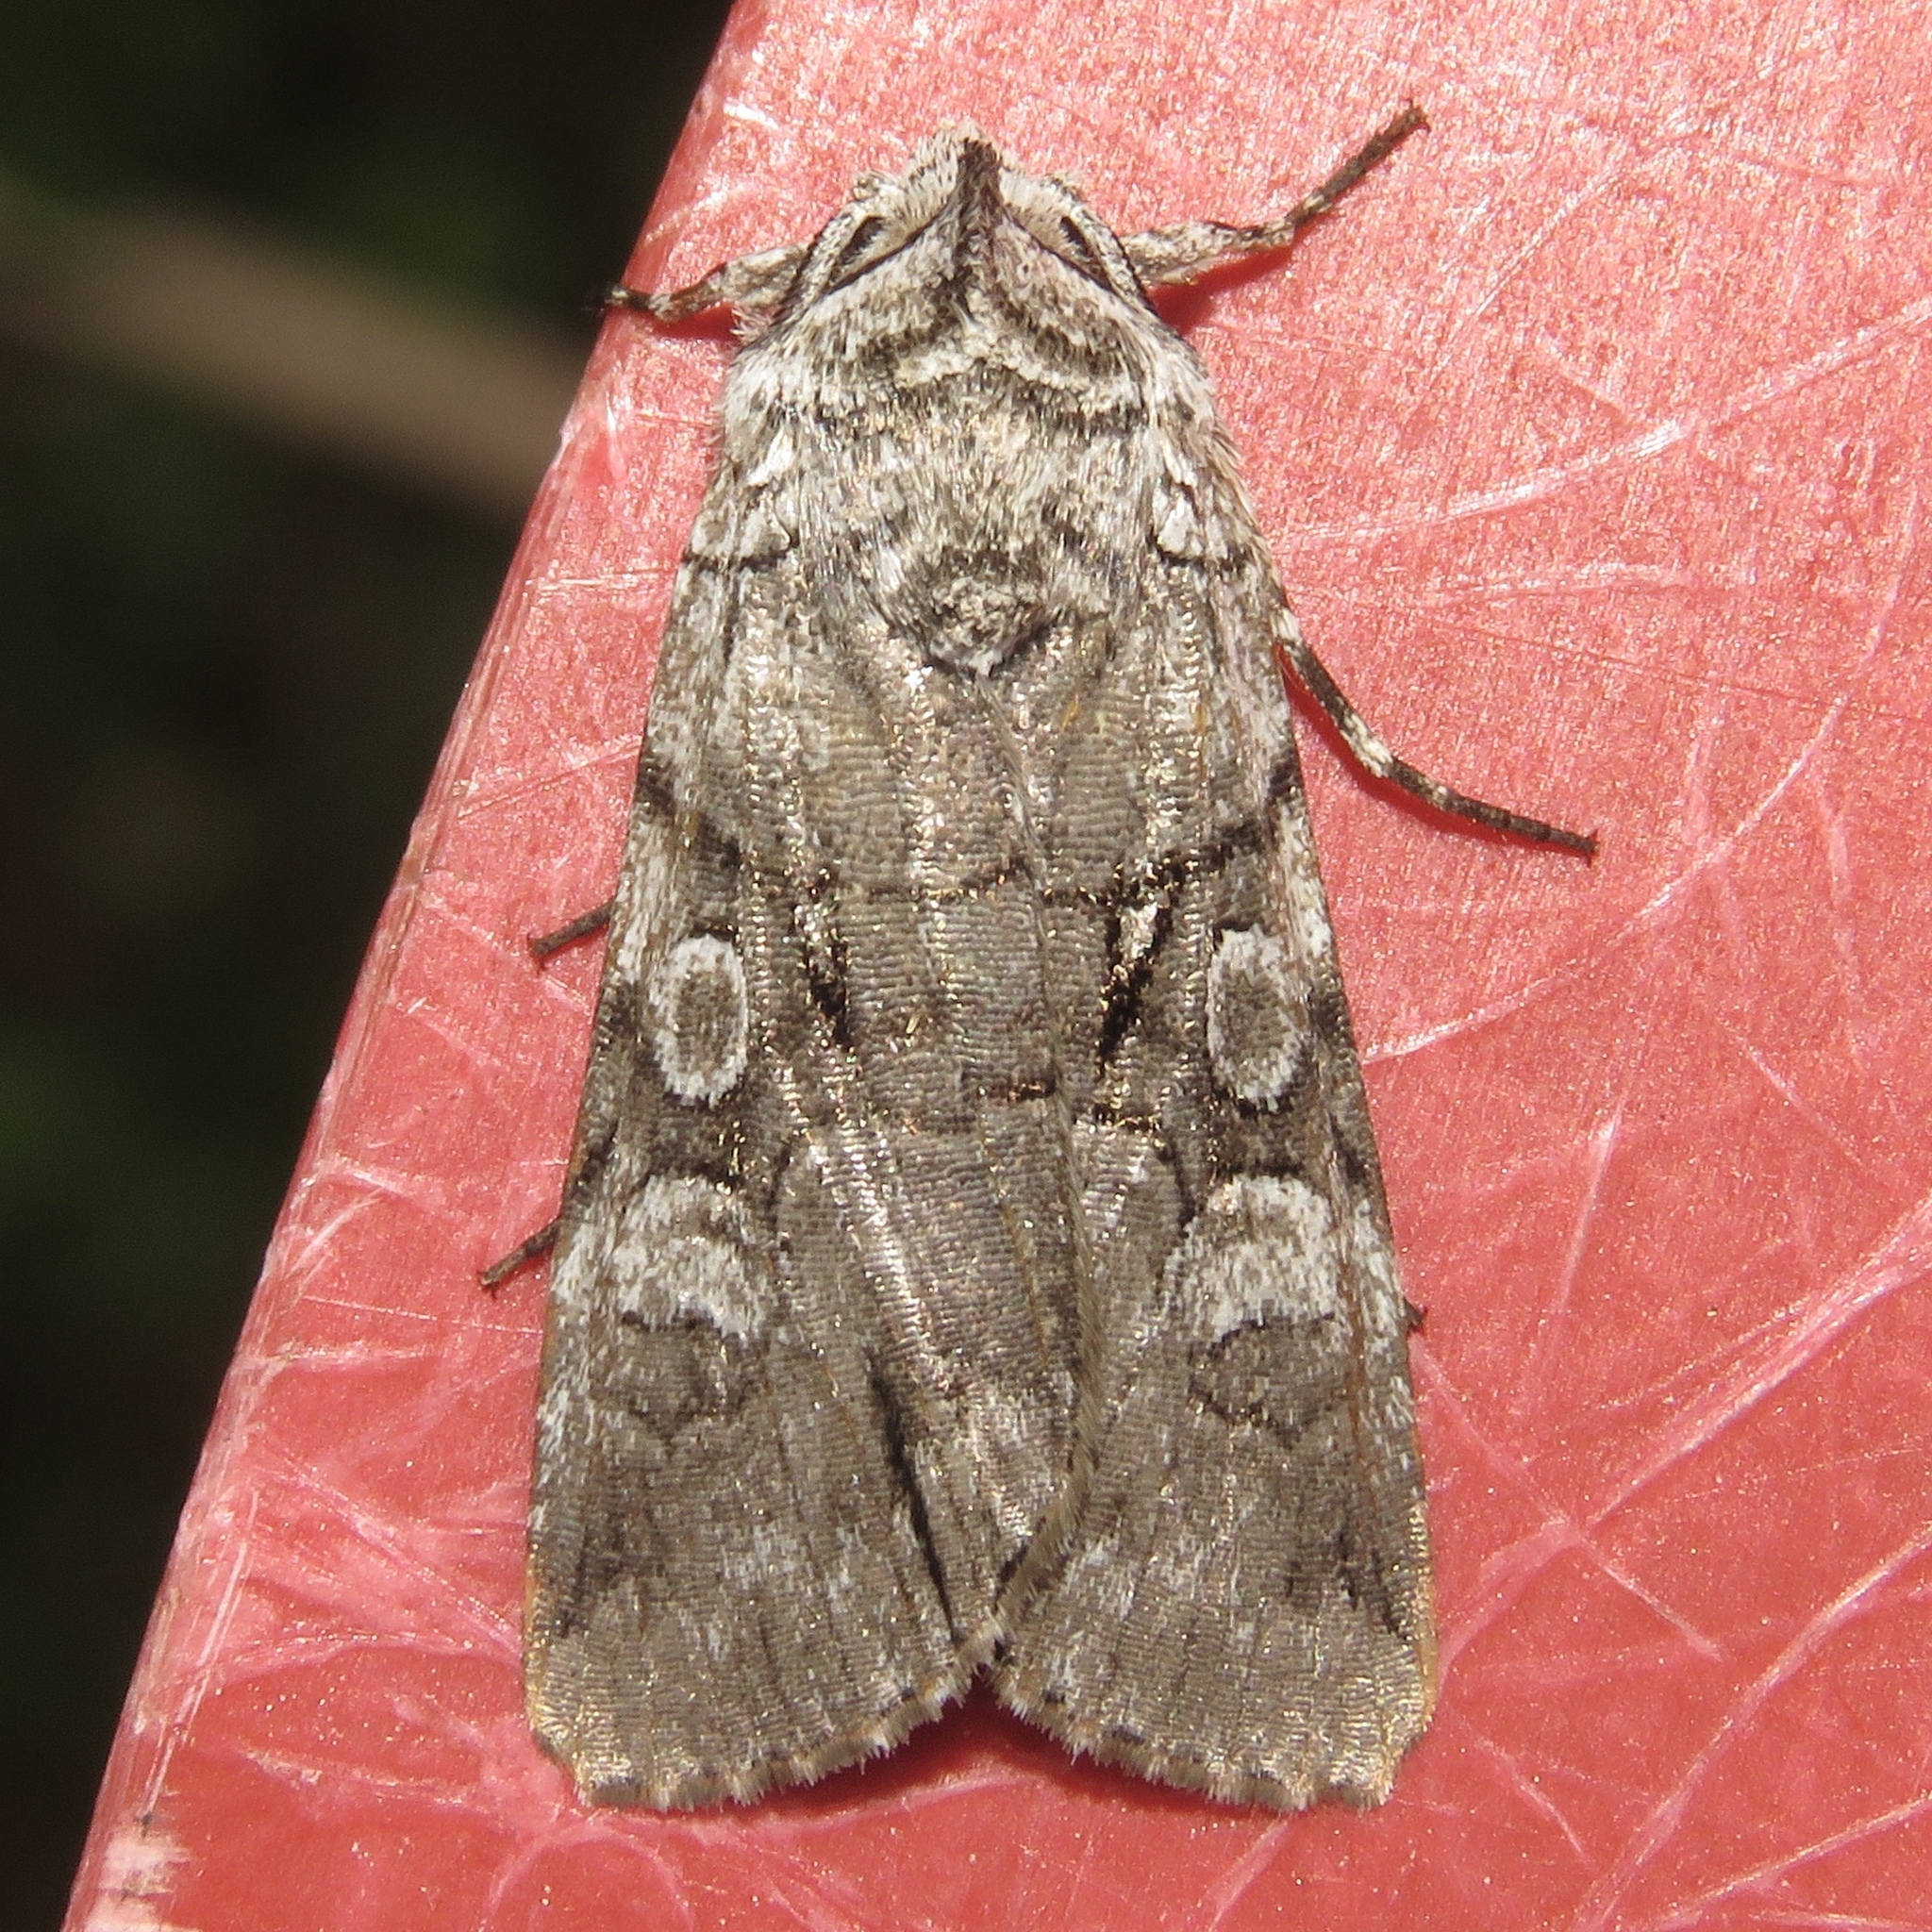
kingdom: Animalia
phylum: Arthropoda
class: Insecta
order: Lepidoptera
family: Noctuidae
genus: Sympistis
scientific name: Sympistis chionanthi
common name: Fringe-tree sallow
